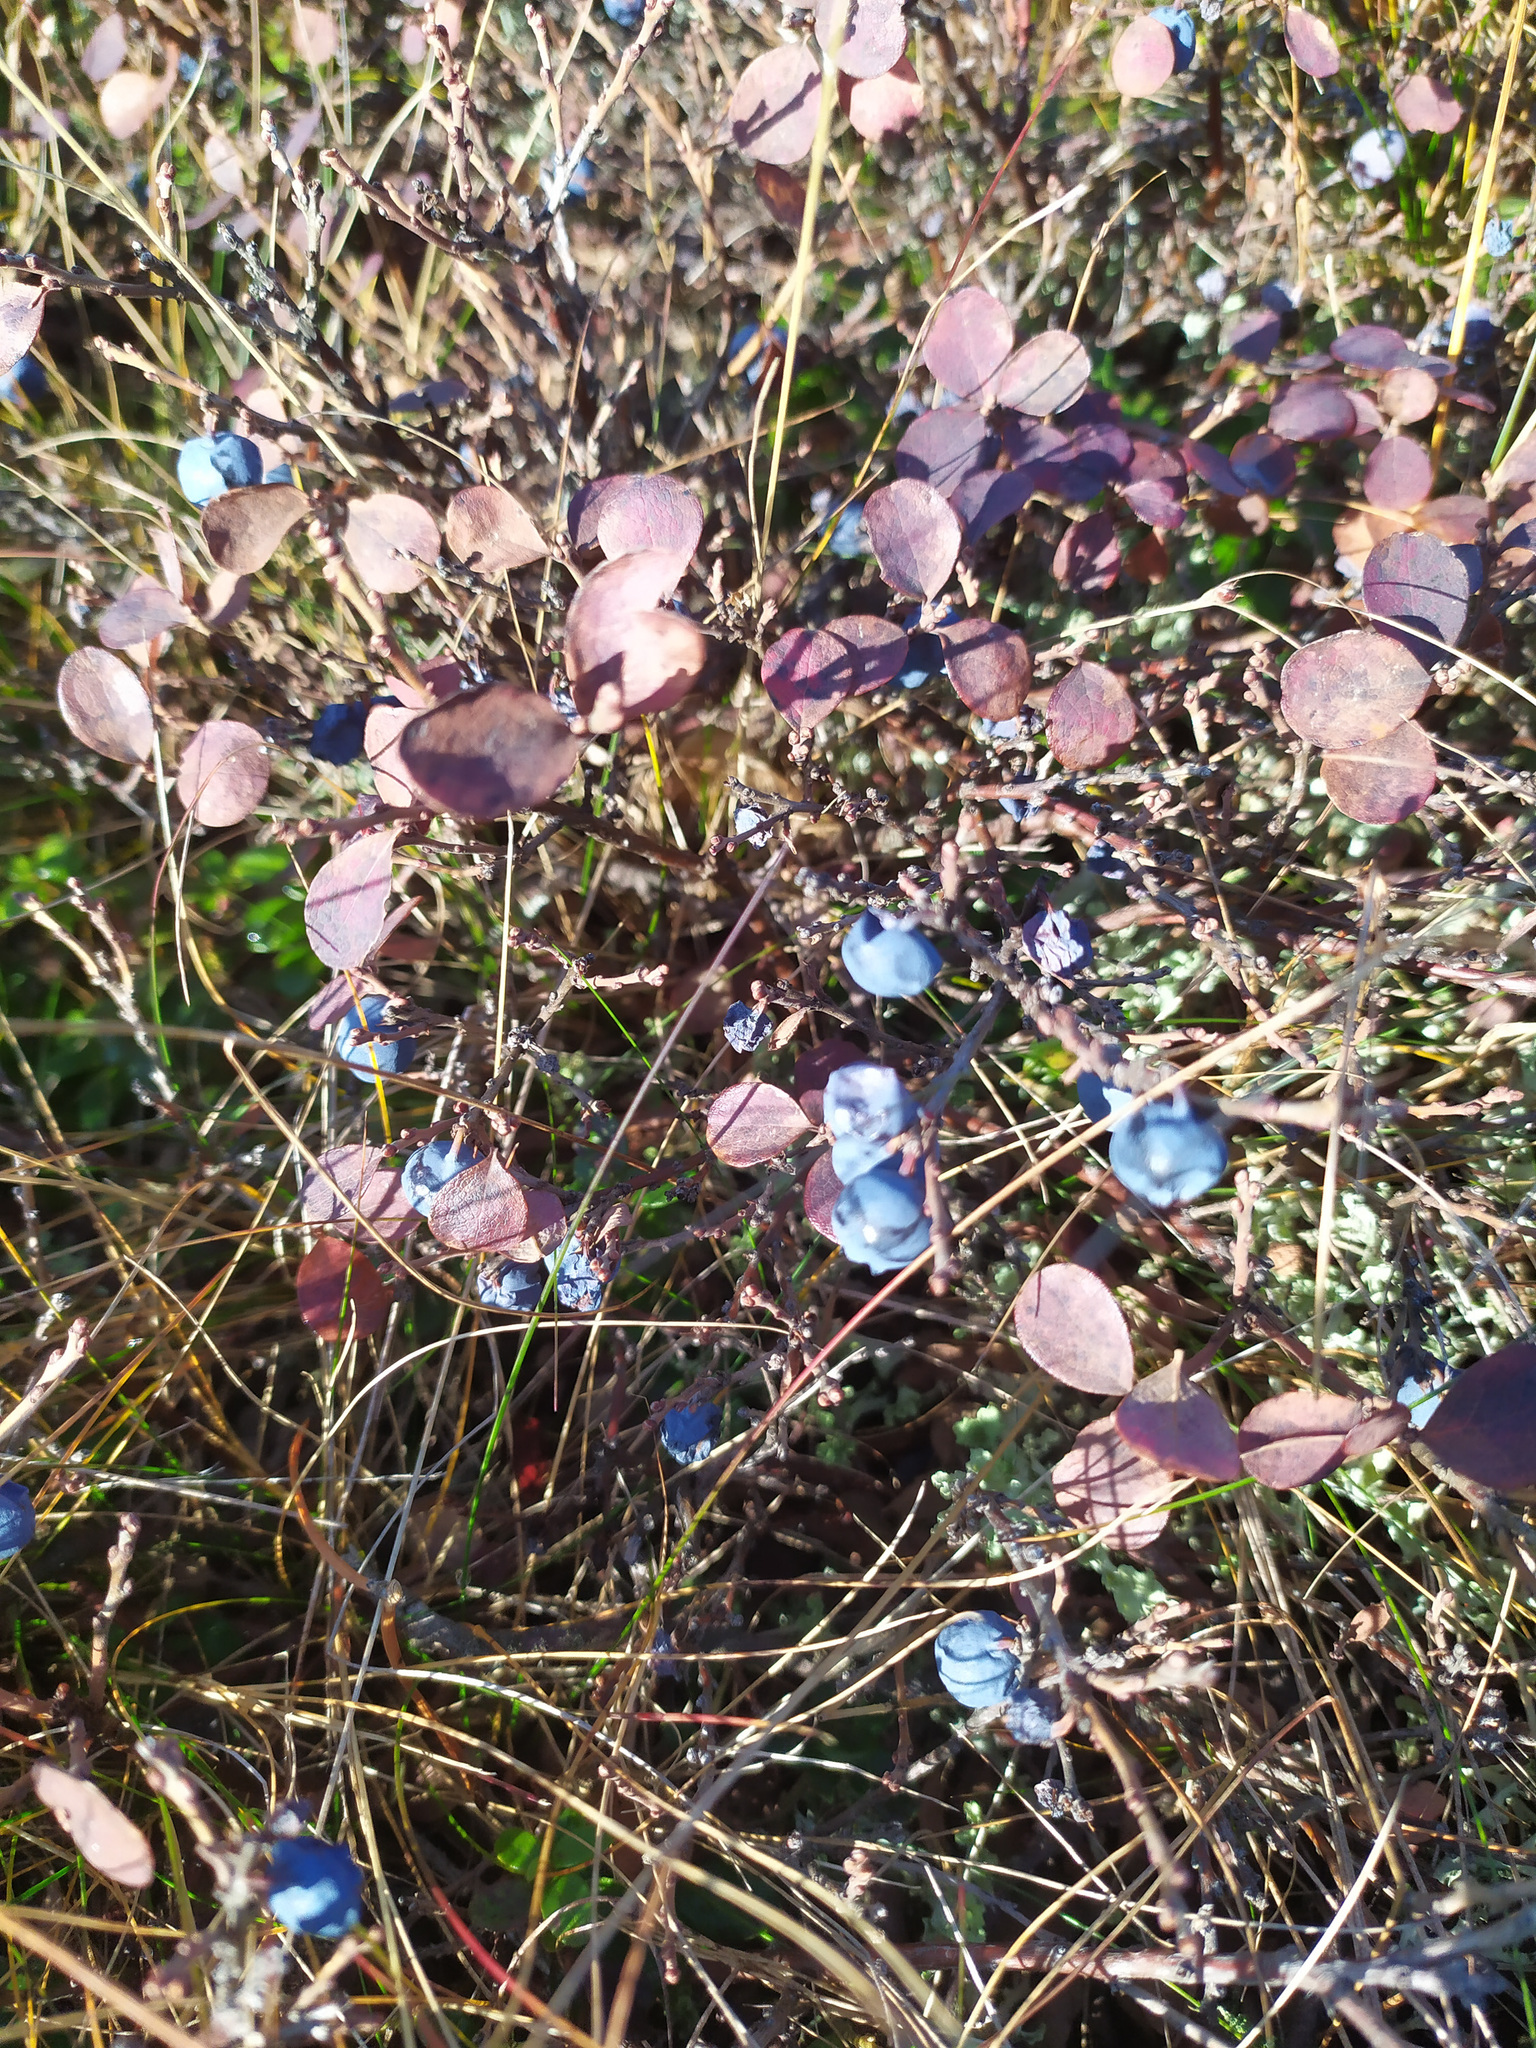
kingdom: Plantae
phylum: Tracheophyta
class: Magnoliopsida
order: Ericales
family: Ericaceae
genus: Vaccinium
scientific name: Vaccinium uliginosum
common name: Bog bilberry
